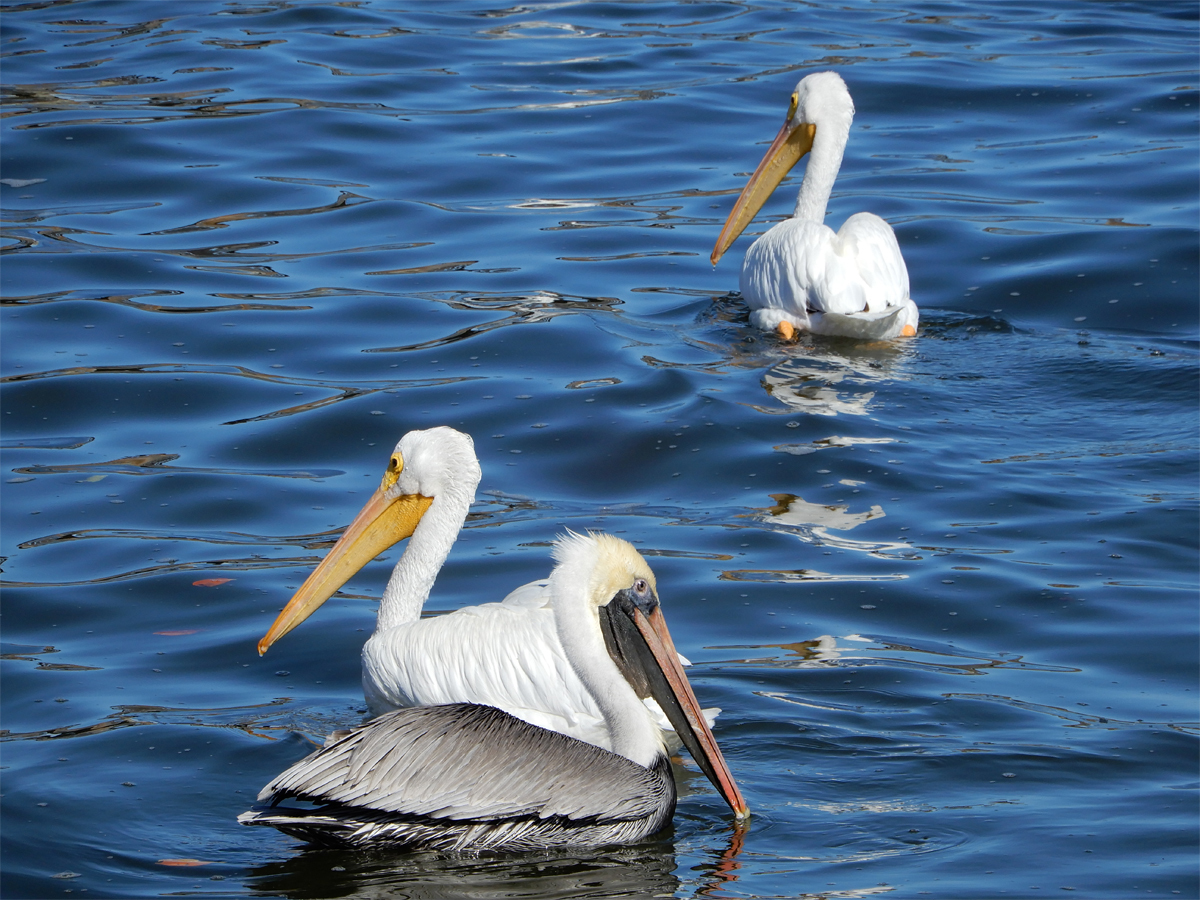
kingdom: Animalia
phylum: Chordata
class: Aves
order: Pelecaniformes
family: Pelecanidae
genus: Pelecanus
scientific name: Pelecanus erythrorhynchos
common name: American white pelican
